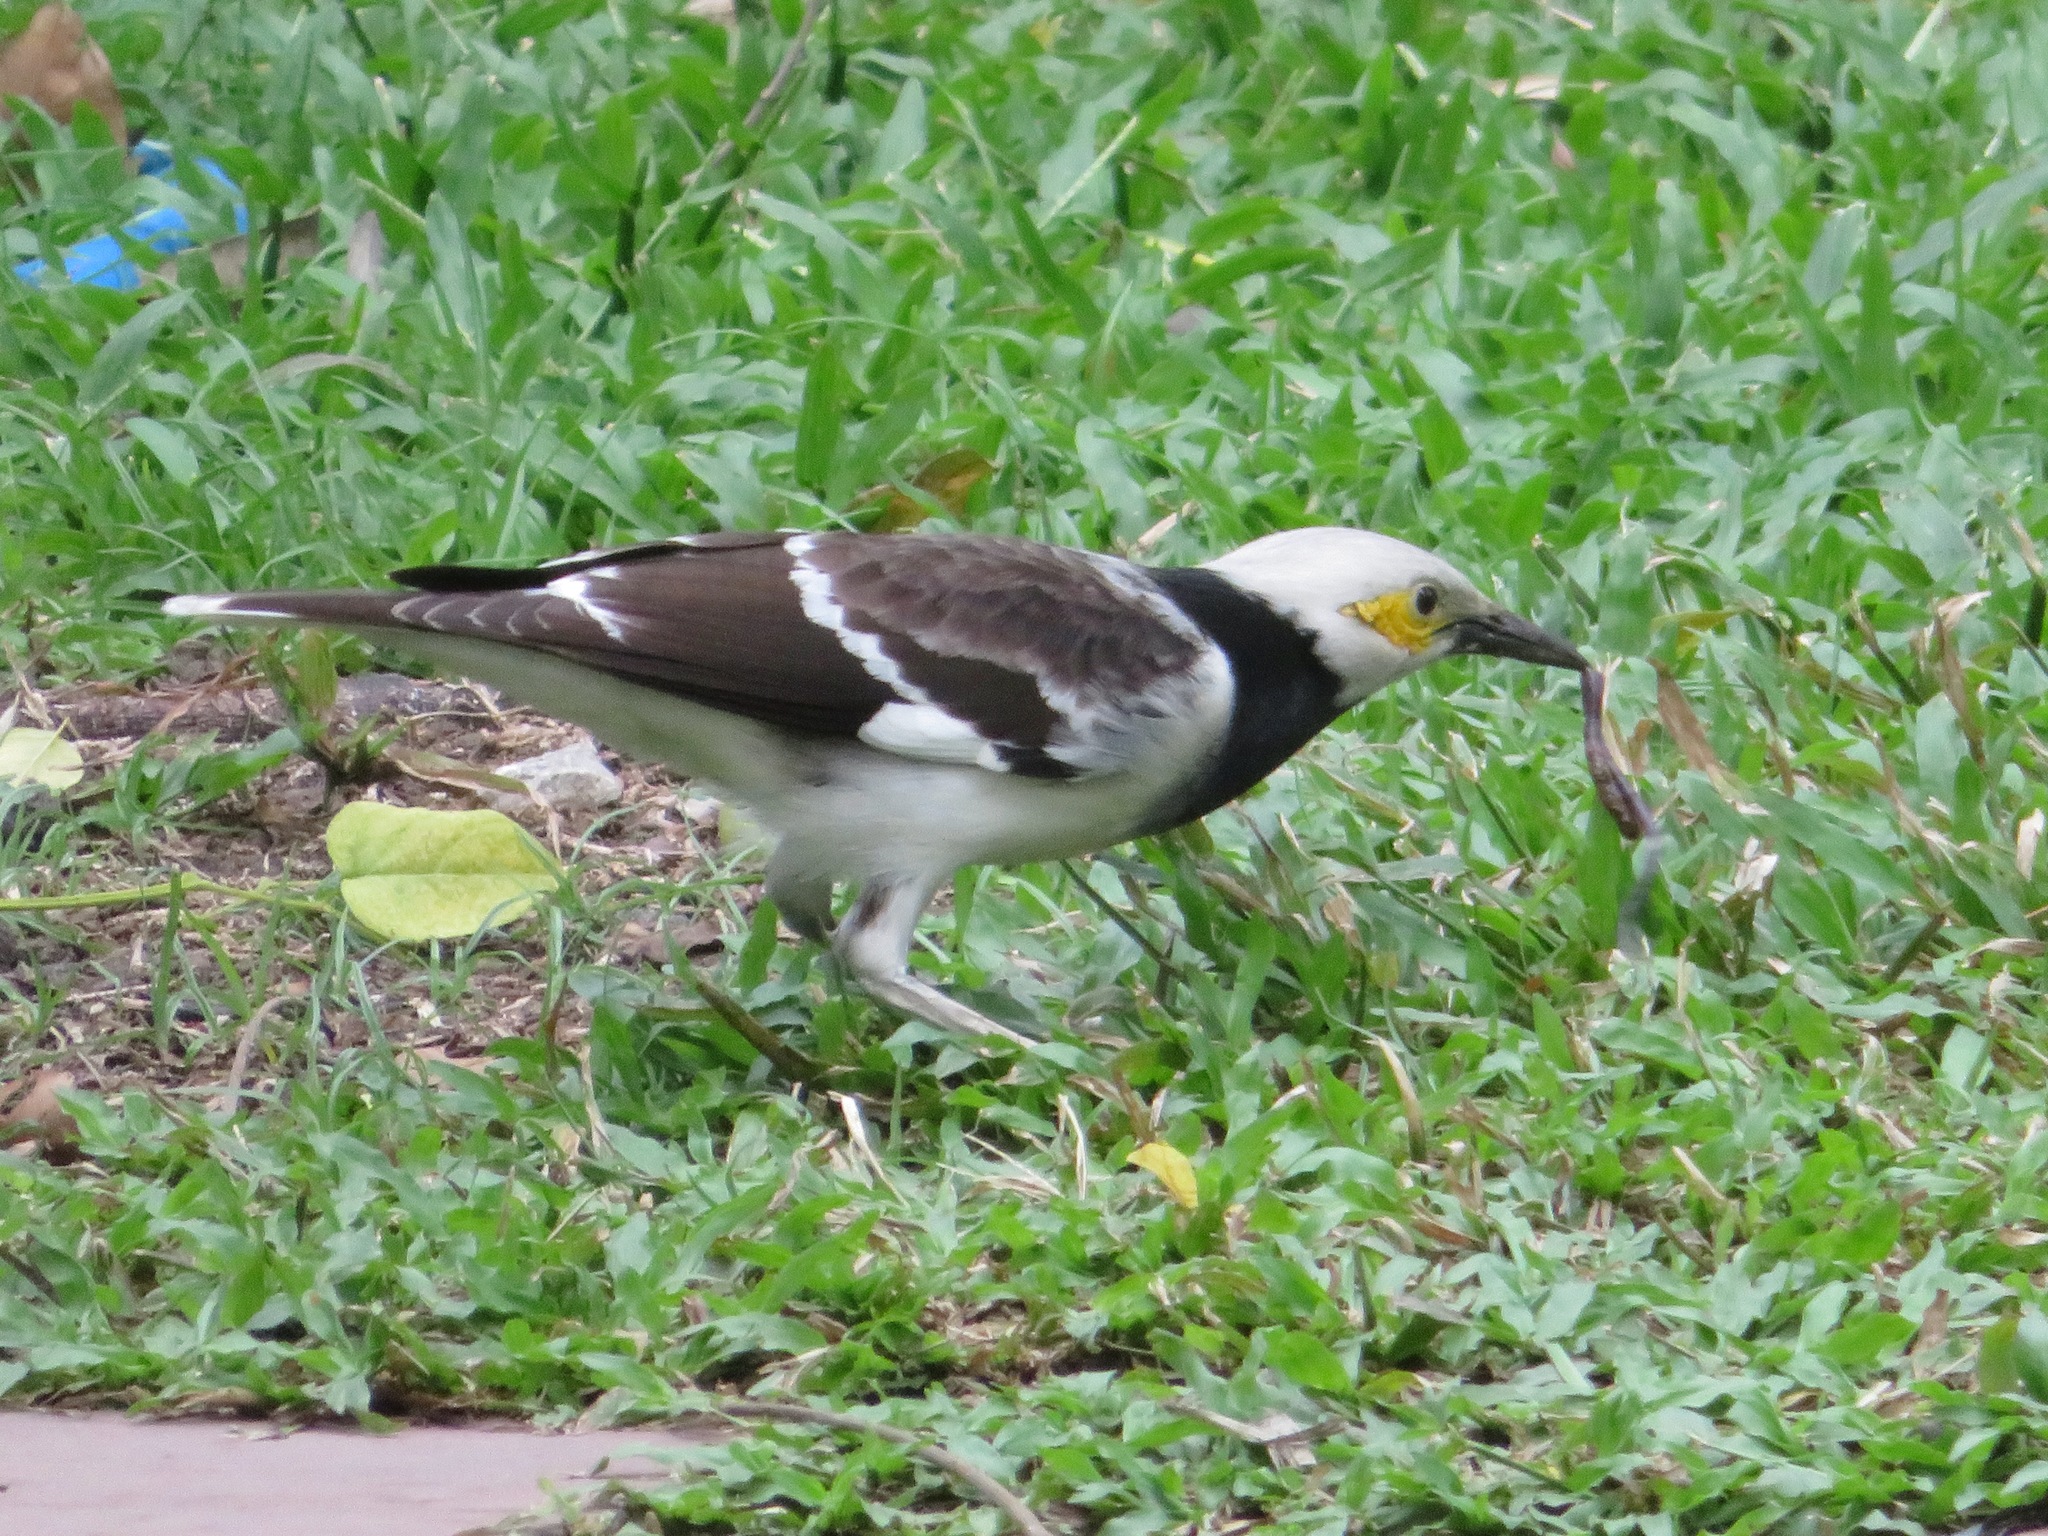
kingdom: Animalia
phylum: Chordata
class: Aves
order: Passeriformes
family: Sturnidae
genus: Gracupica
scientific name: Gracupica nigricollis
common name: Black-collared starling
